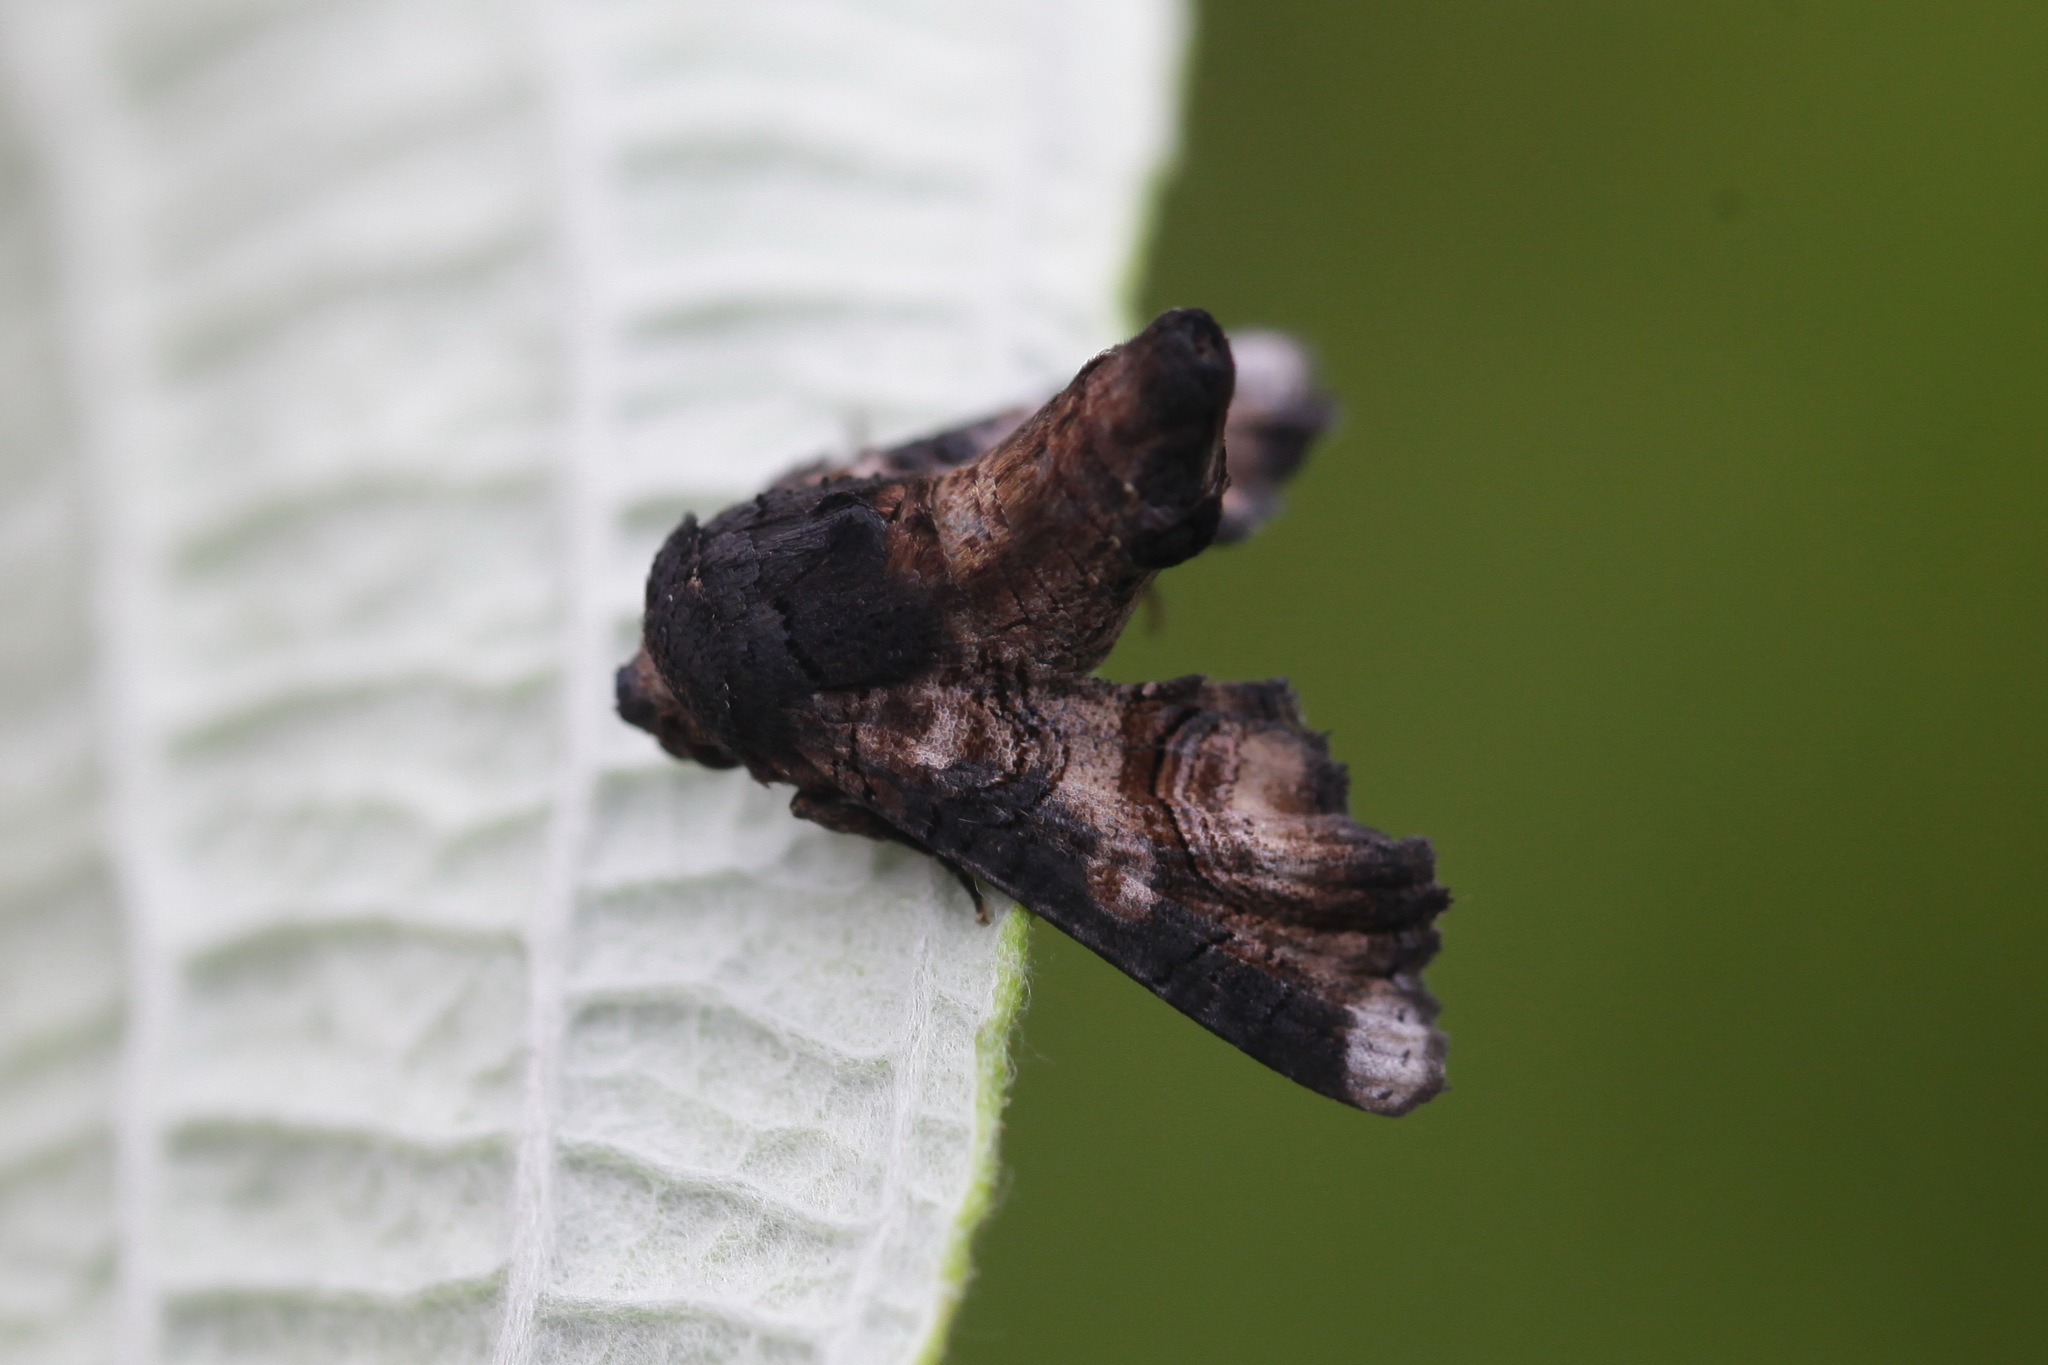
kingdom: Animalia
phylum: Arthropoda
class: Insecta
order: Lepidoptera
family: Euteliidae
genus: Eutelia
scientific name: Eutelia catephioides
